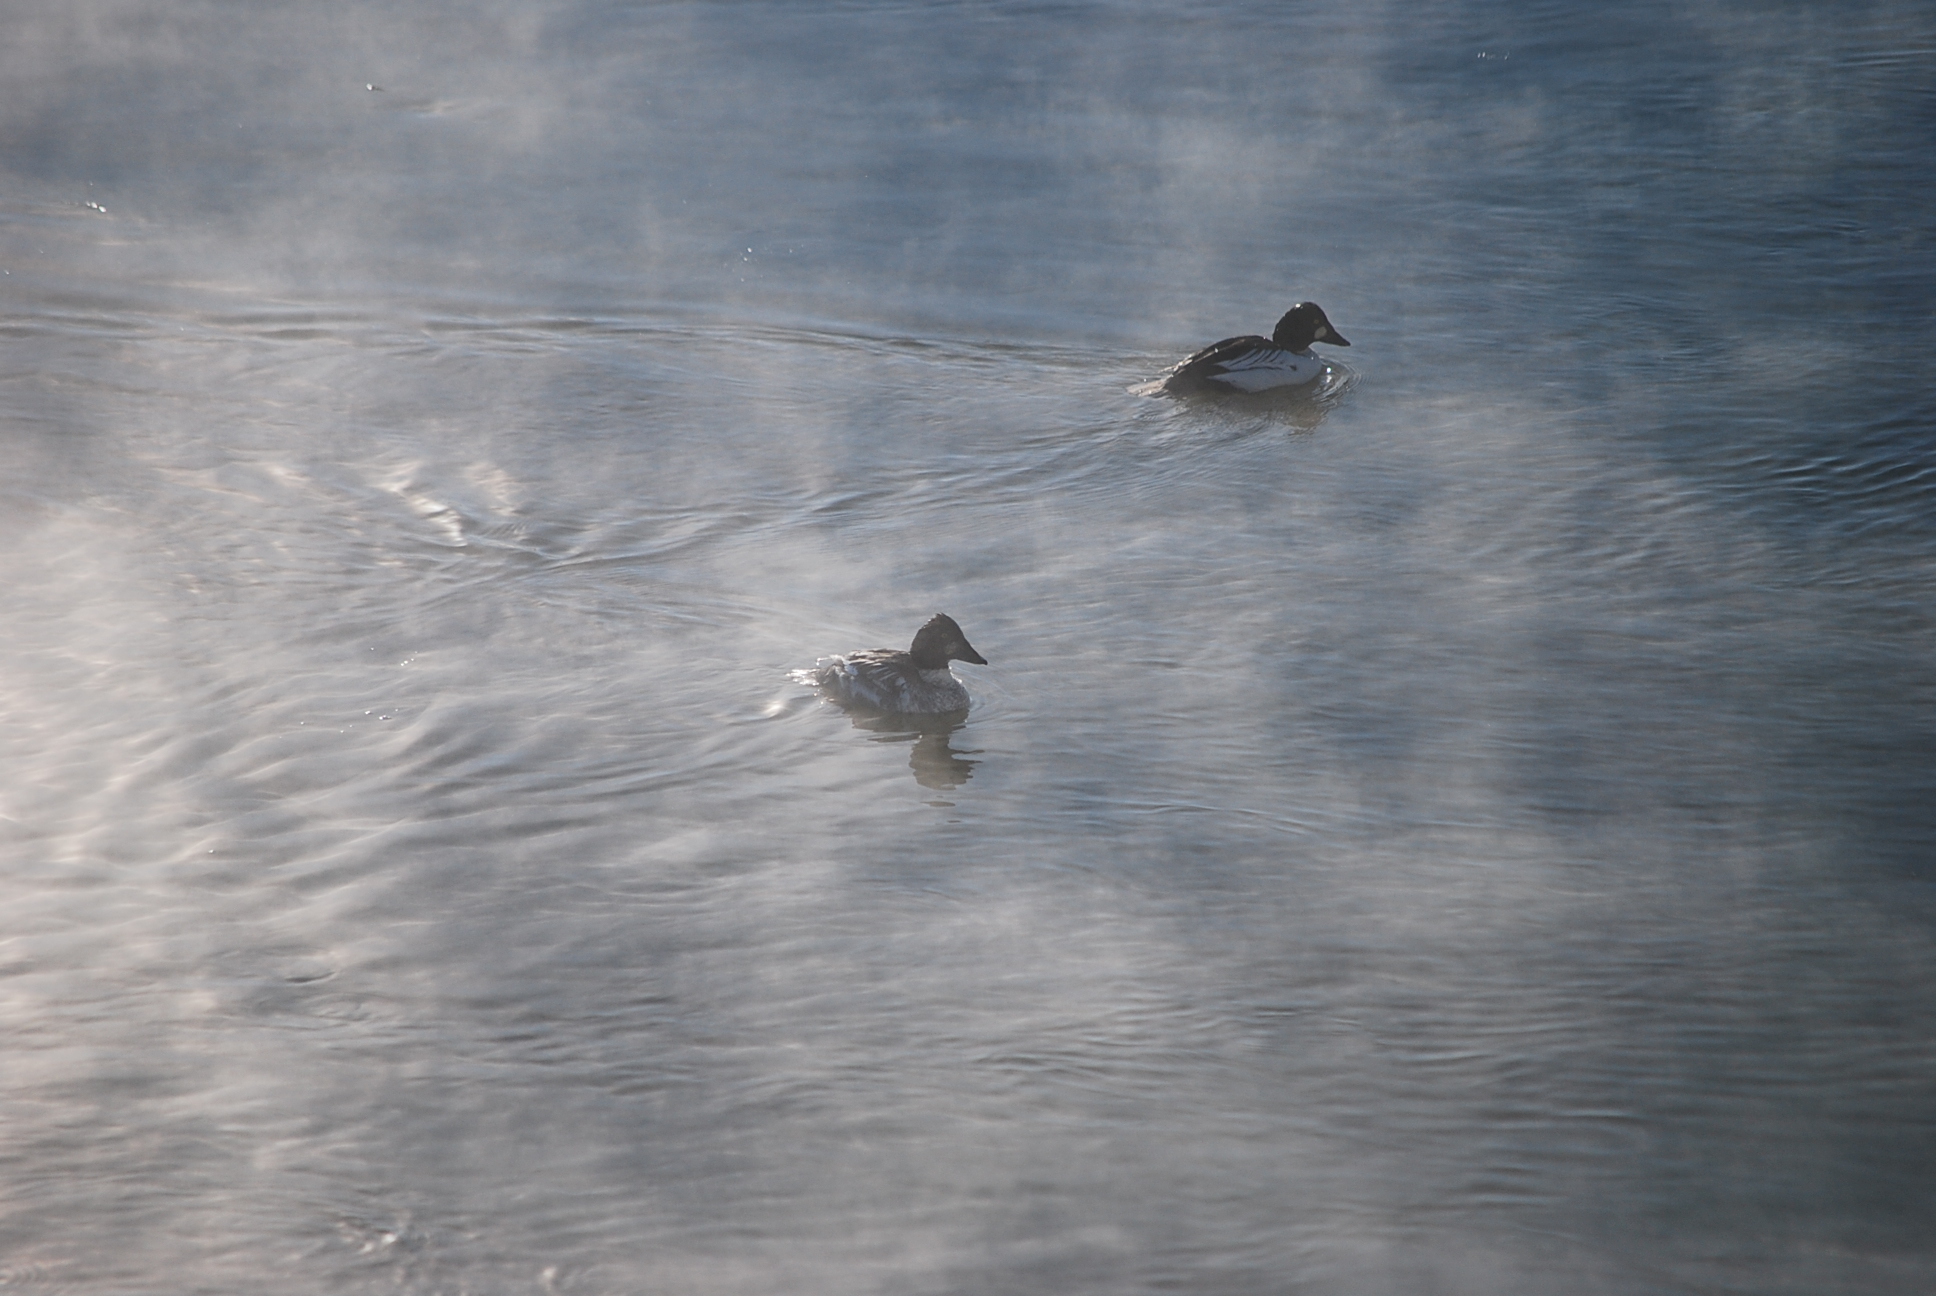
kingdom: Animalia
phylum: Chordata
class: Aves
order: Anseriformes
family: Anatidae
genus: Bucephala
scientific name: Bucephala clangula
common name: Common goldeneye
